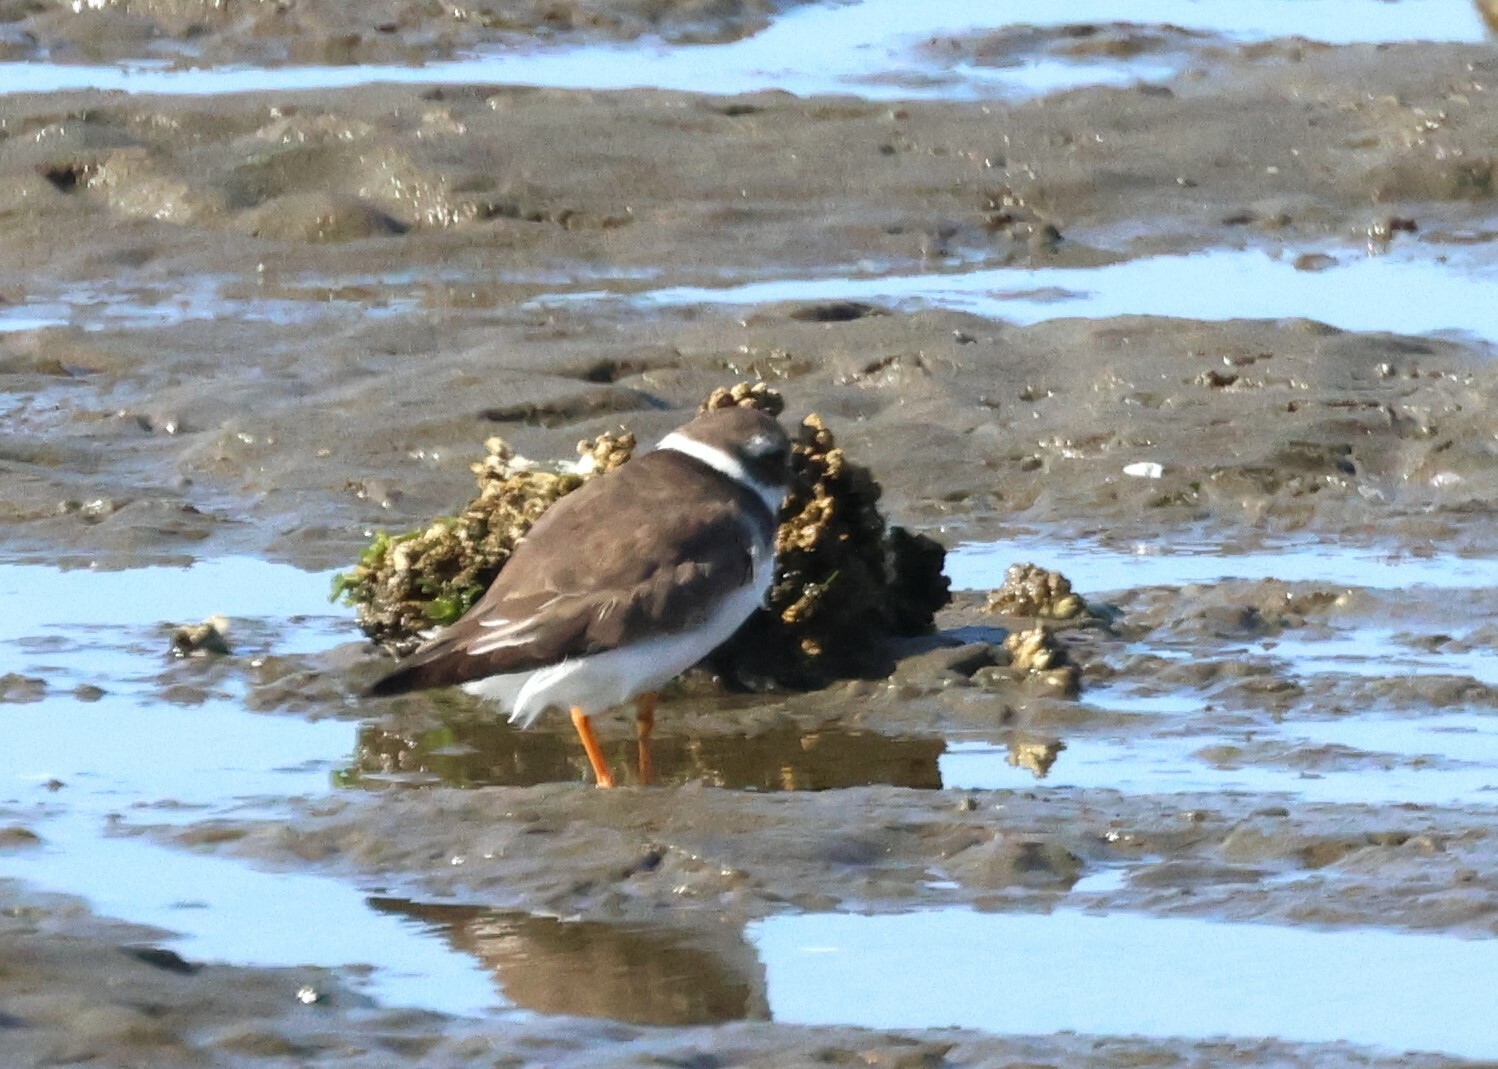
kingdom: Animalia
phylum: Chordata
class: Aves
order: Charadriiformes
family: Charadriidae
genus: Charadrius
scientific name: Charadrius hiaticula
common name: Common ringed plover
